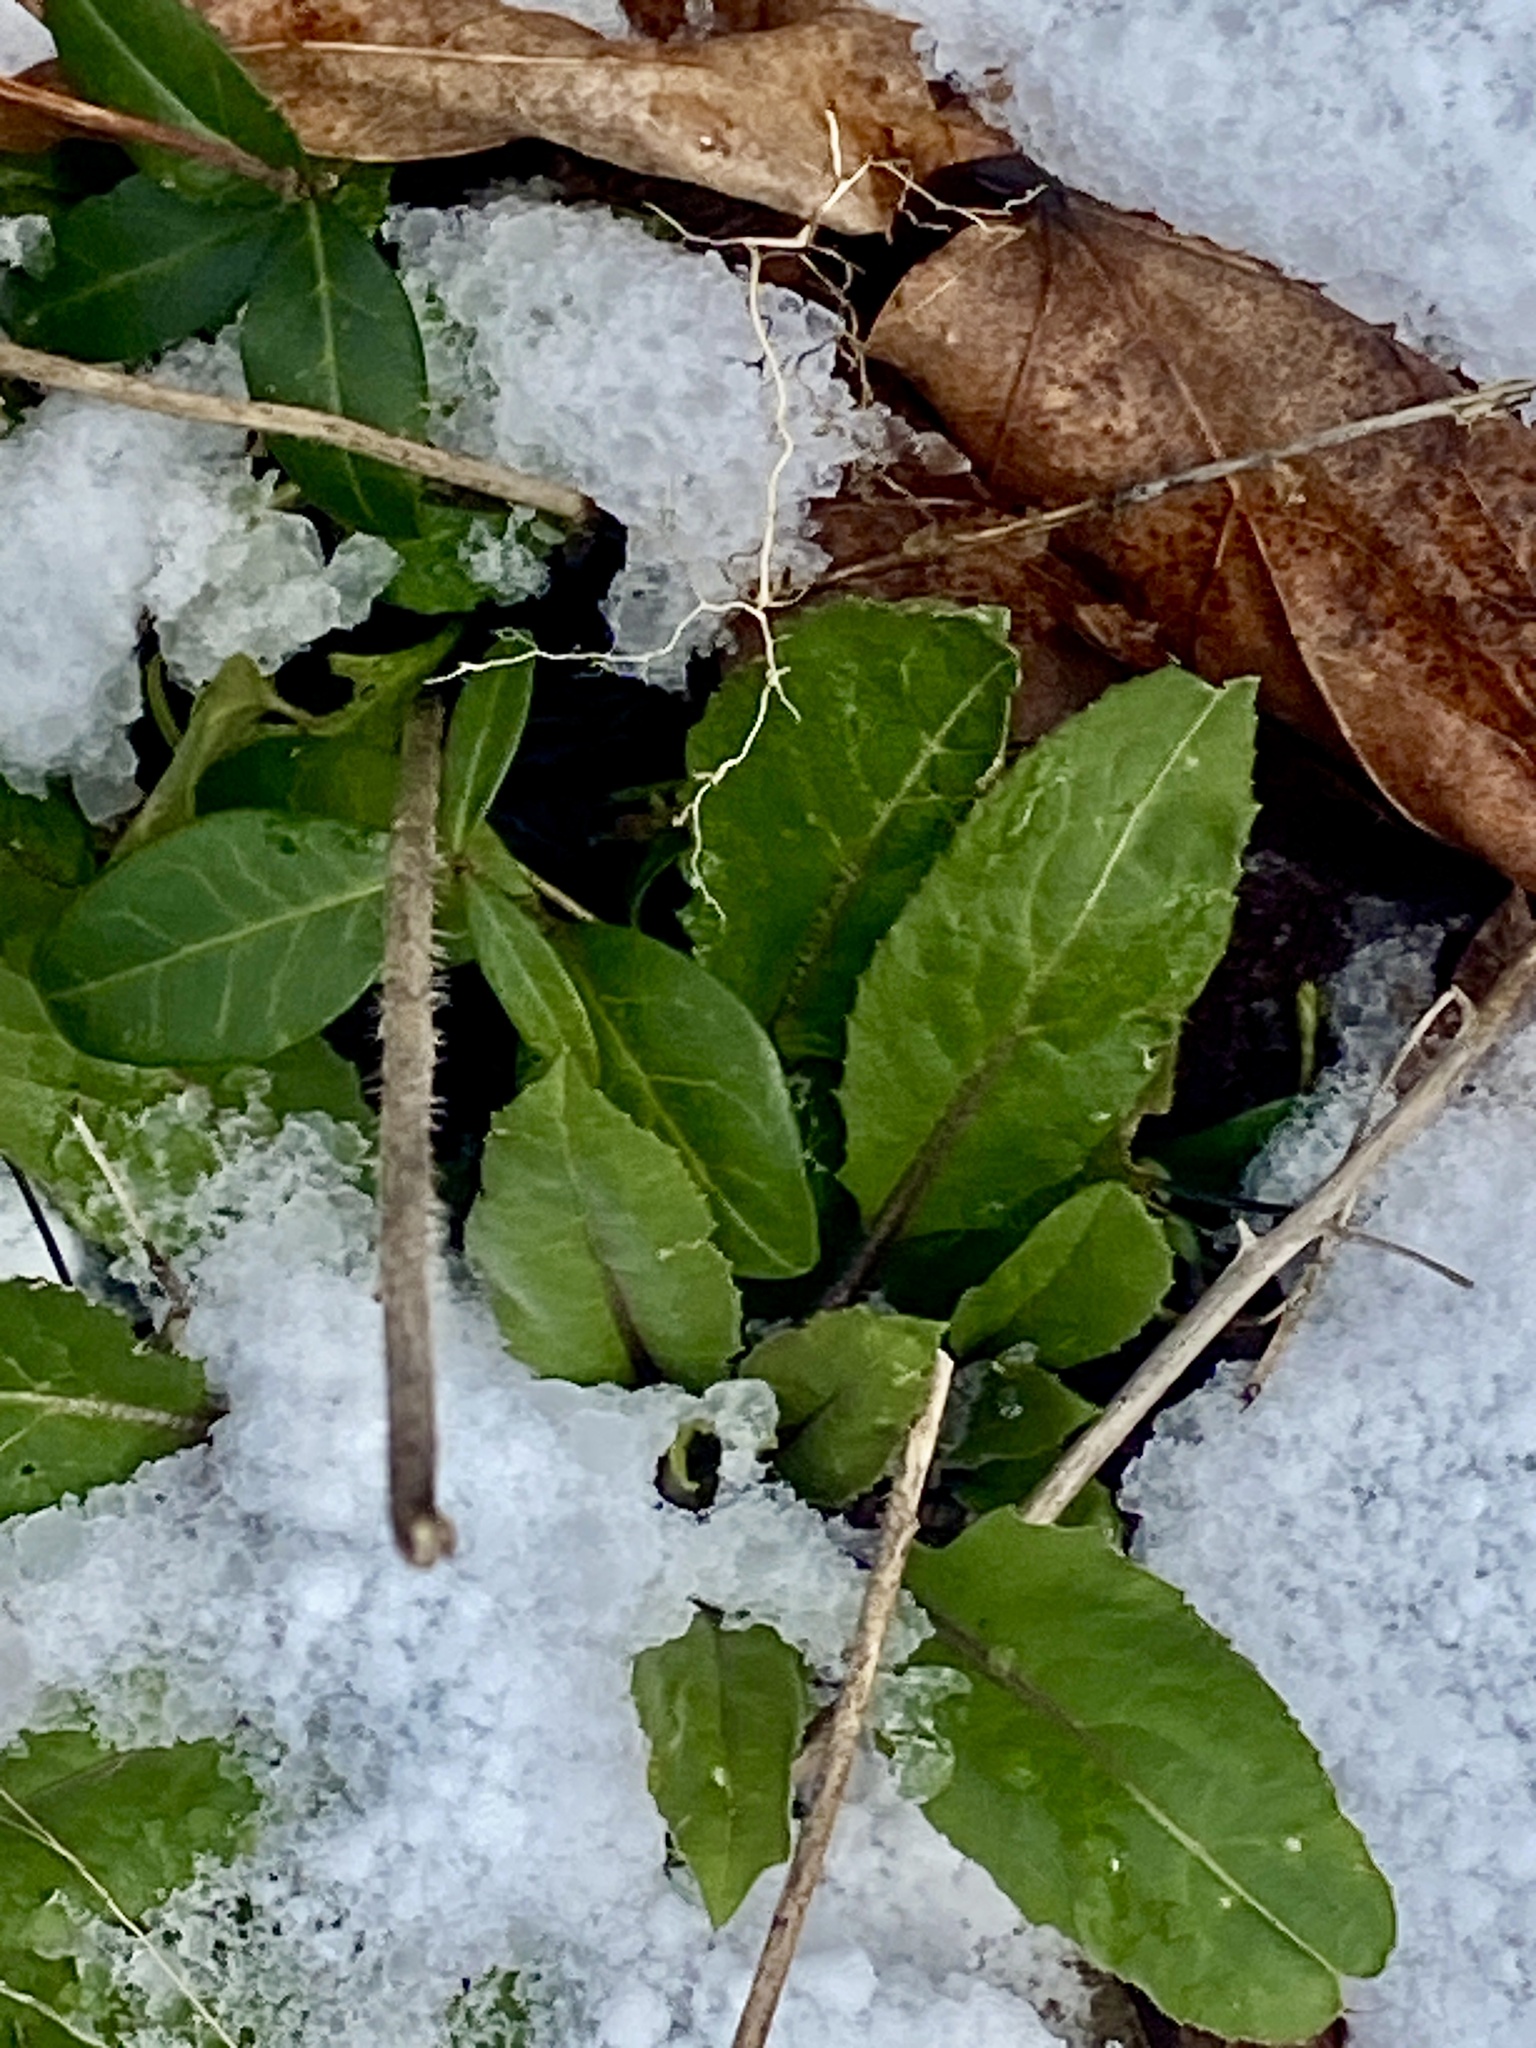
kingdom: Plantae
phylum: Tracheophyta
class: Magnoliopsida
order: Brassicales
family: Brassicaceae
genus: Hesperis
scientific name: Hesperis matronalis
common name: Dame's-violet
